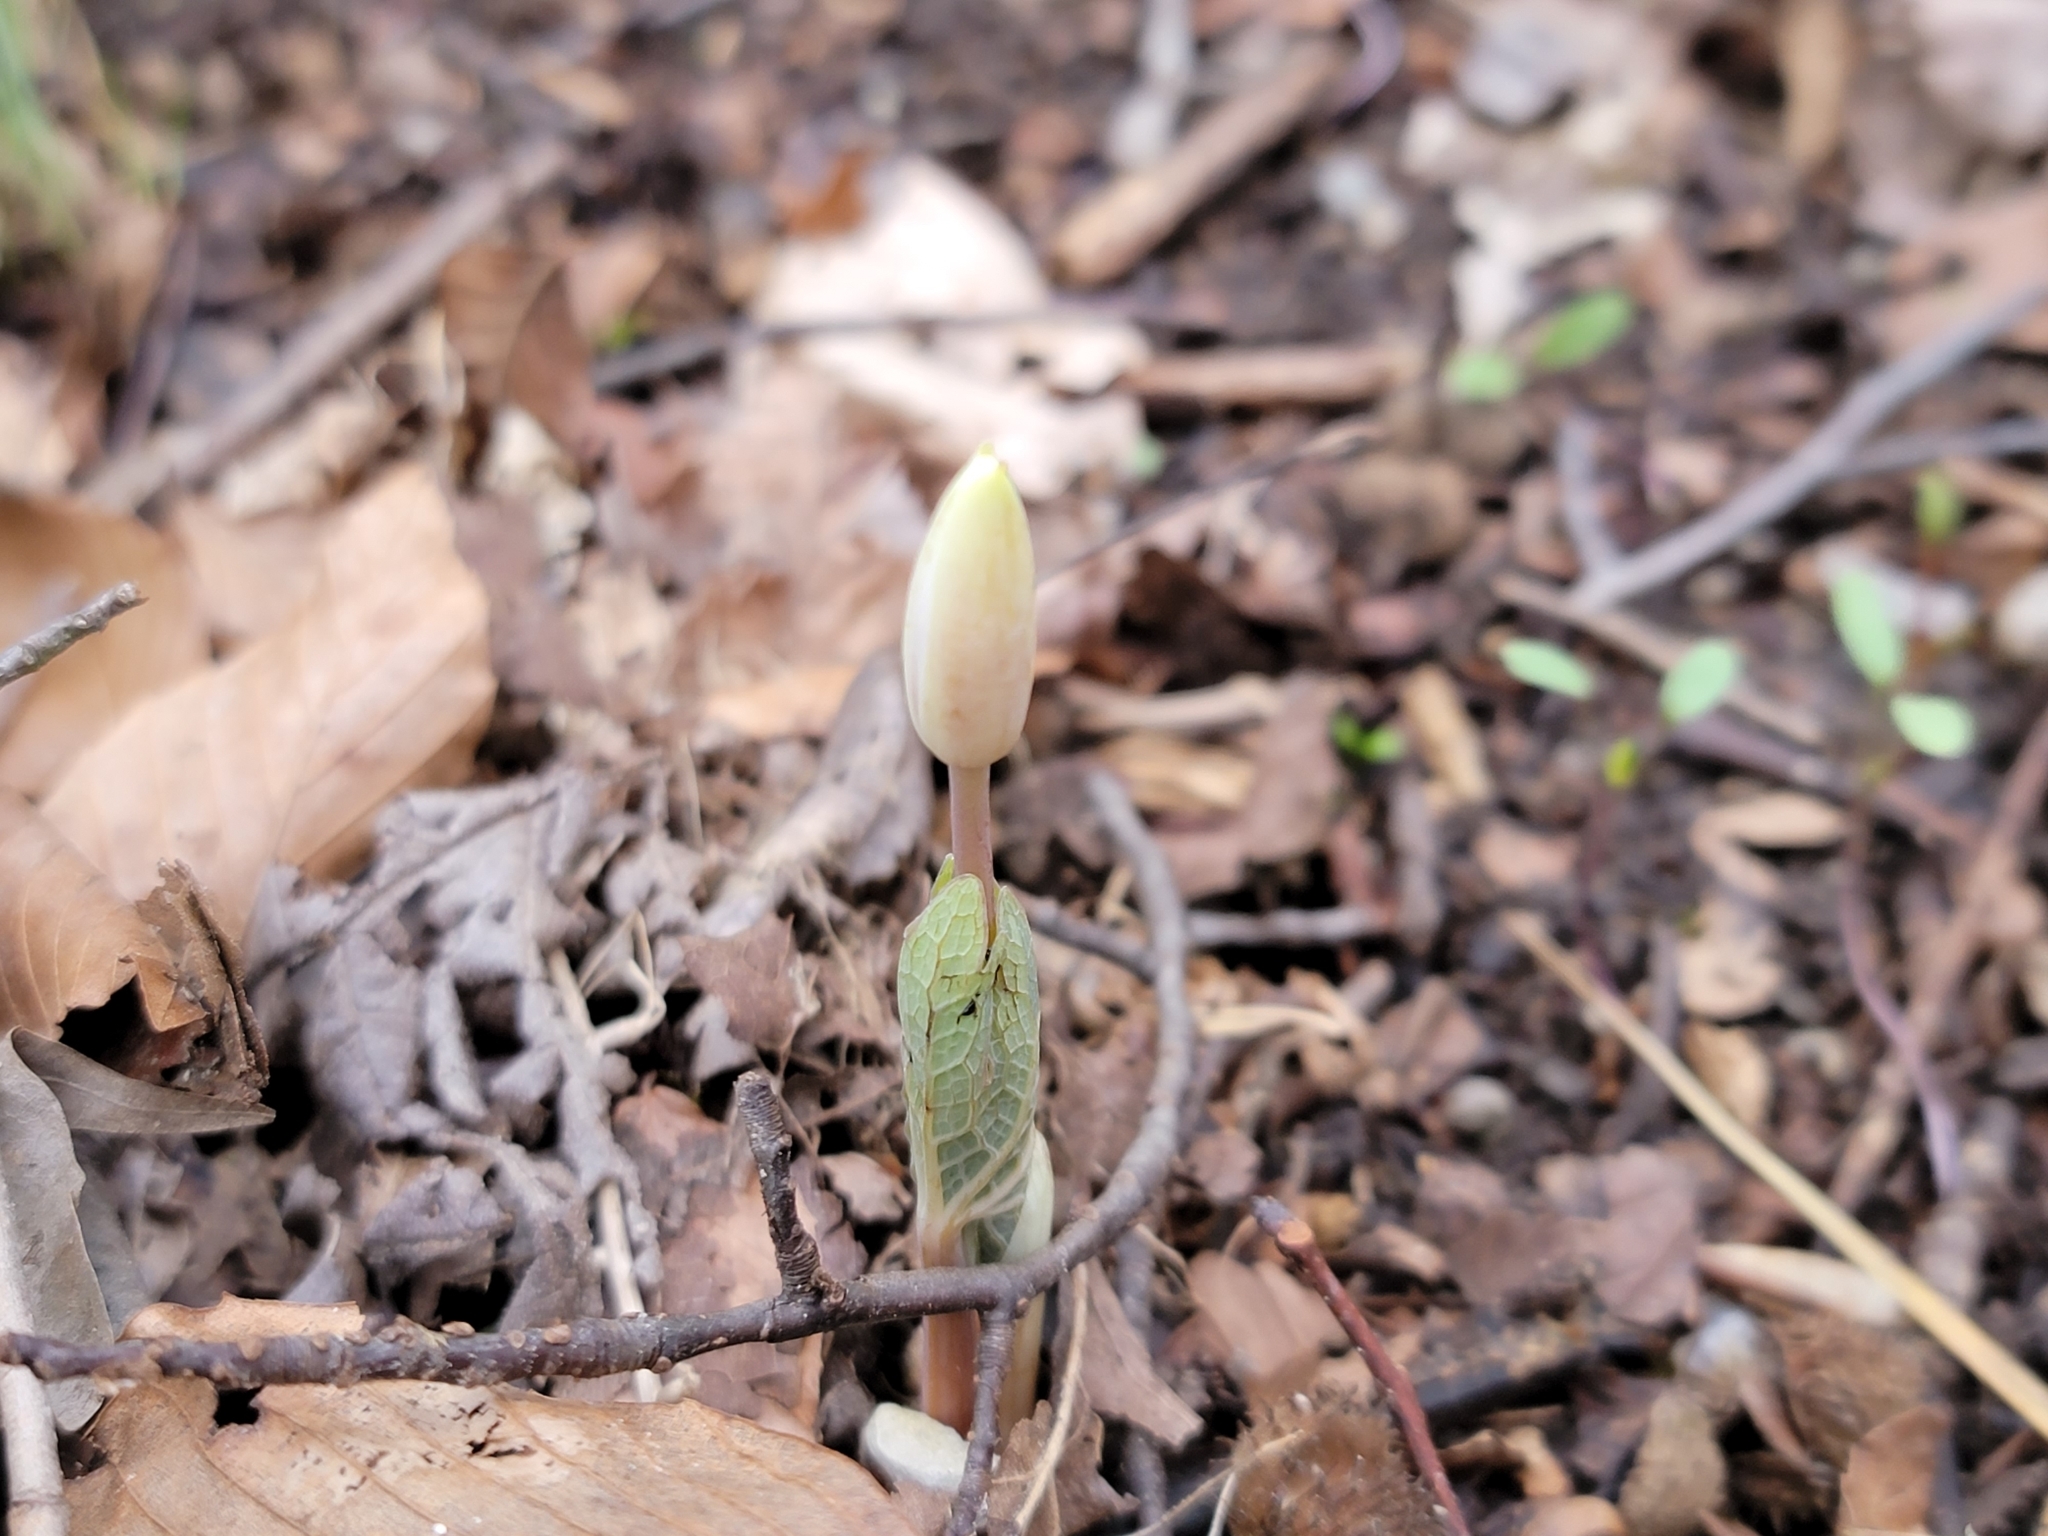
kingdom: Plantae
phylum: Tracheophyta
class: Magnoliopsida
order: Ranunculales
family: Papaveraceae
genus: Sanguinaria
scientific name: Sanguinaria canadensis
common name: Bloodroot
